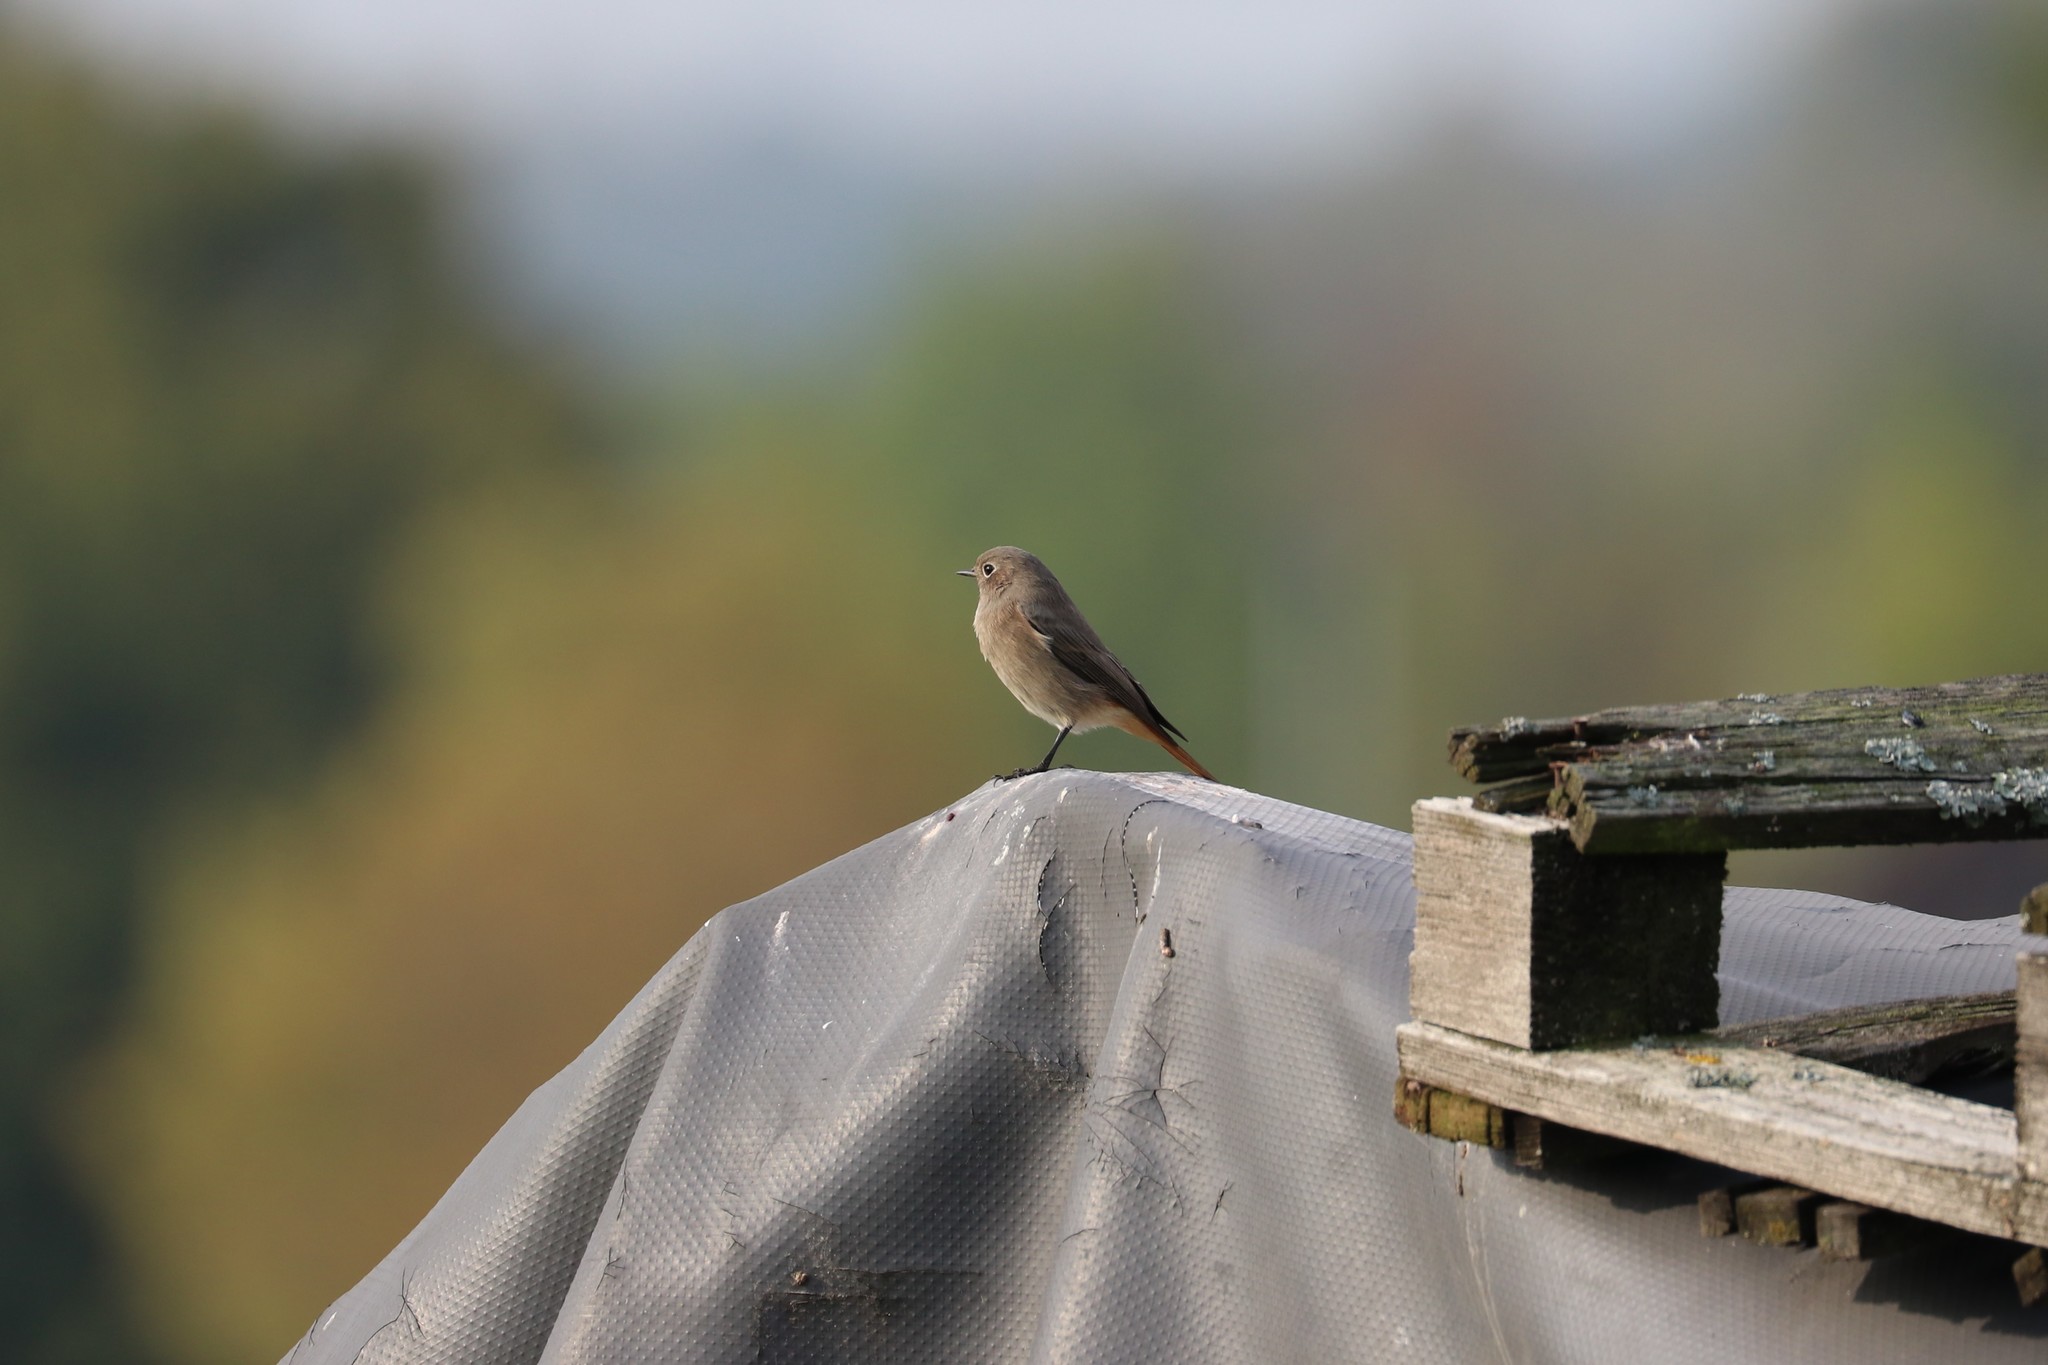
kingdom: Animalia
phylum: Chordata
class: Aves
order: Passeriformes
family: Muscicapidae
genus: Phoenicurus
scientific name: Phoenicurus ochruros
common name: Black redstart
